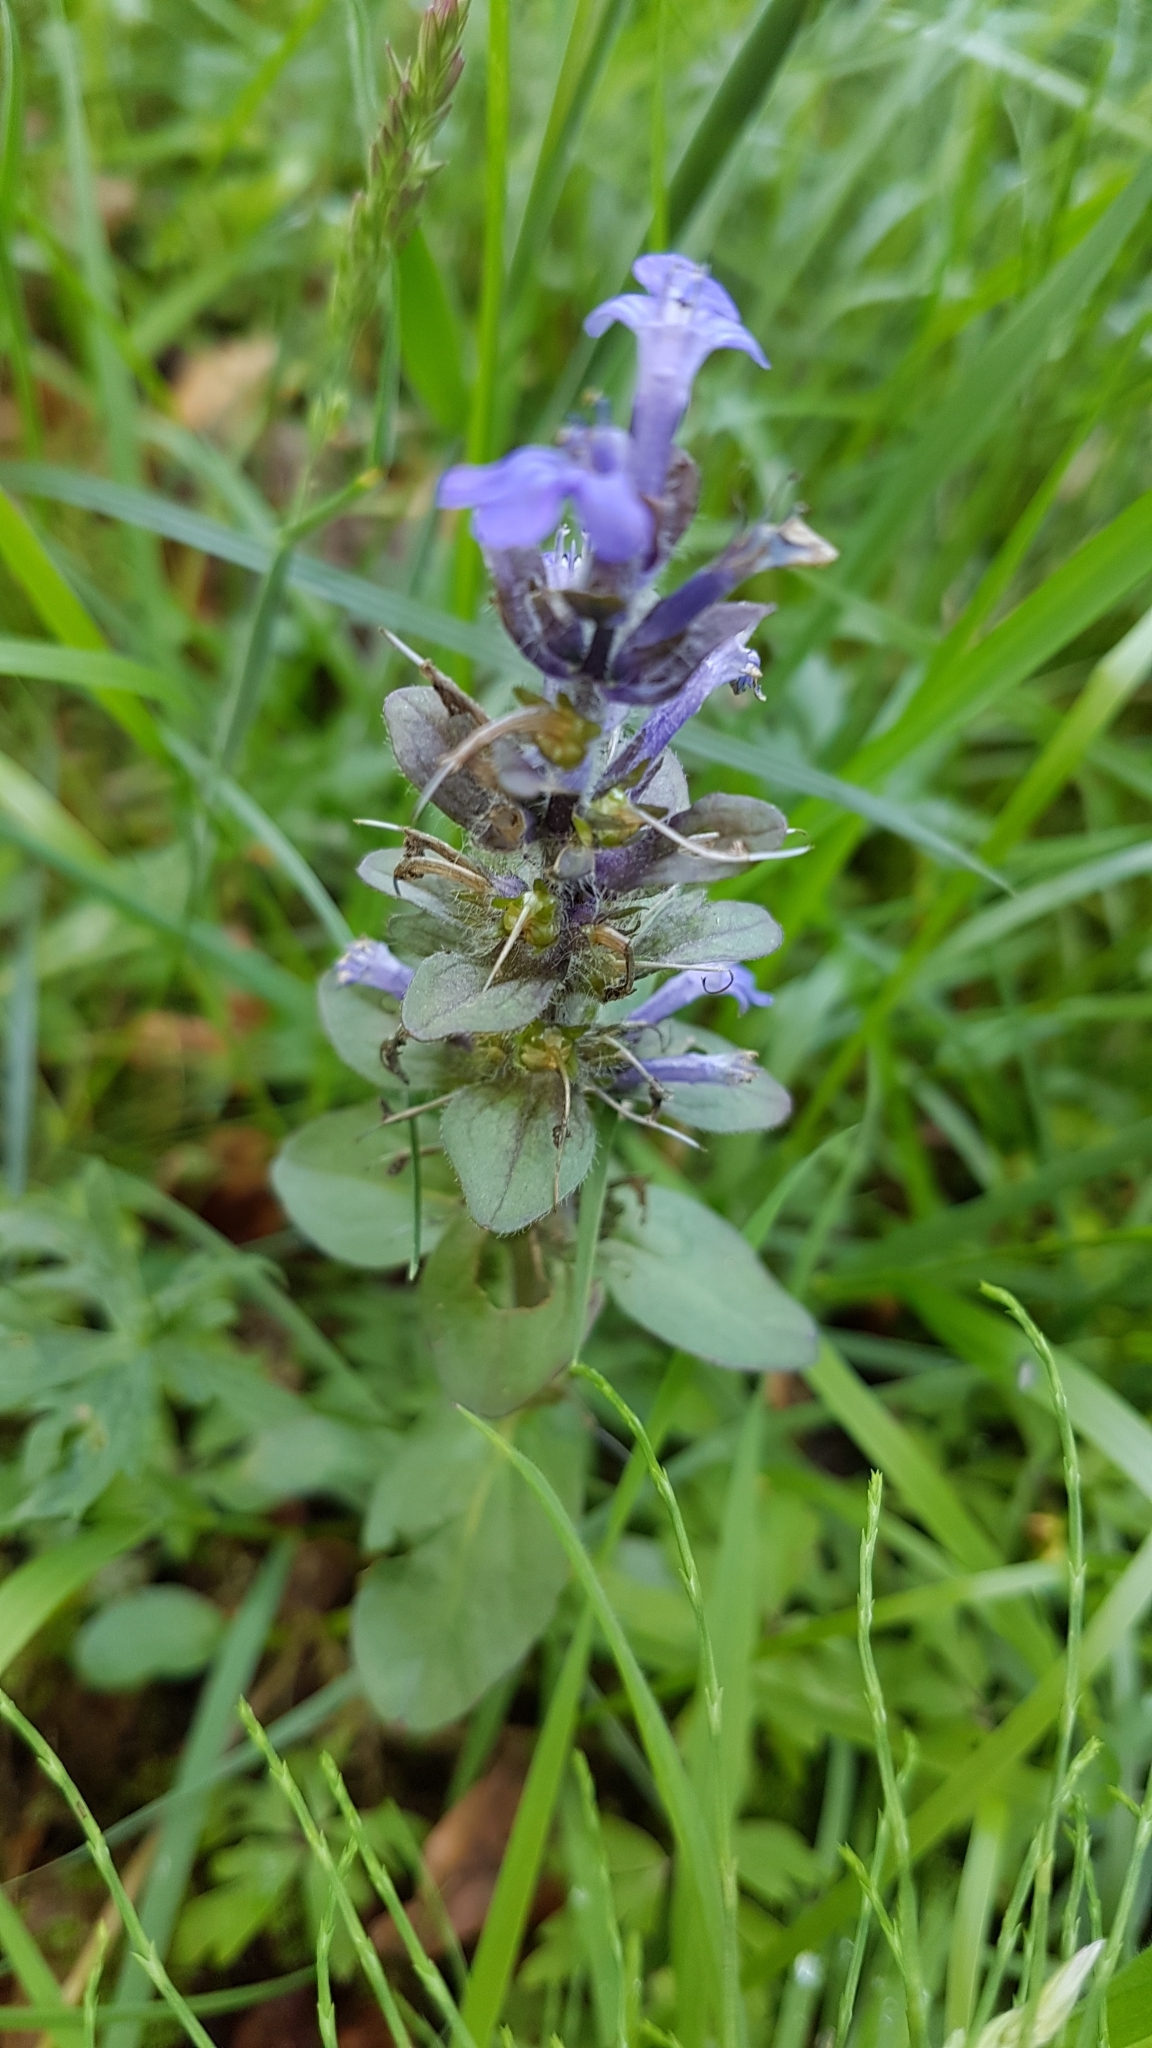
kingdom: Plantae
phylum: Tracheophyta
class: Magnoliopsida
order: Lamiales
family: Lamiaceae
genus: Ajuga
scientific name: Ajuga reptans
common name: Bugle
